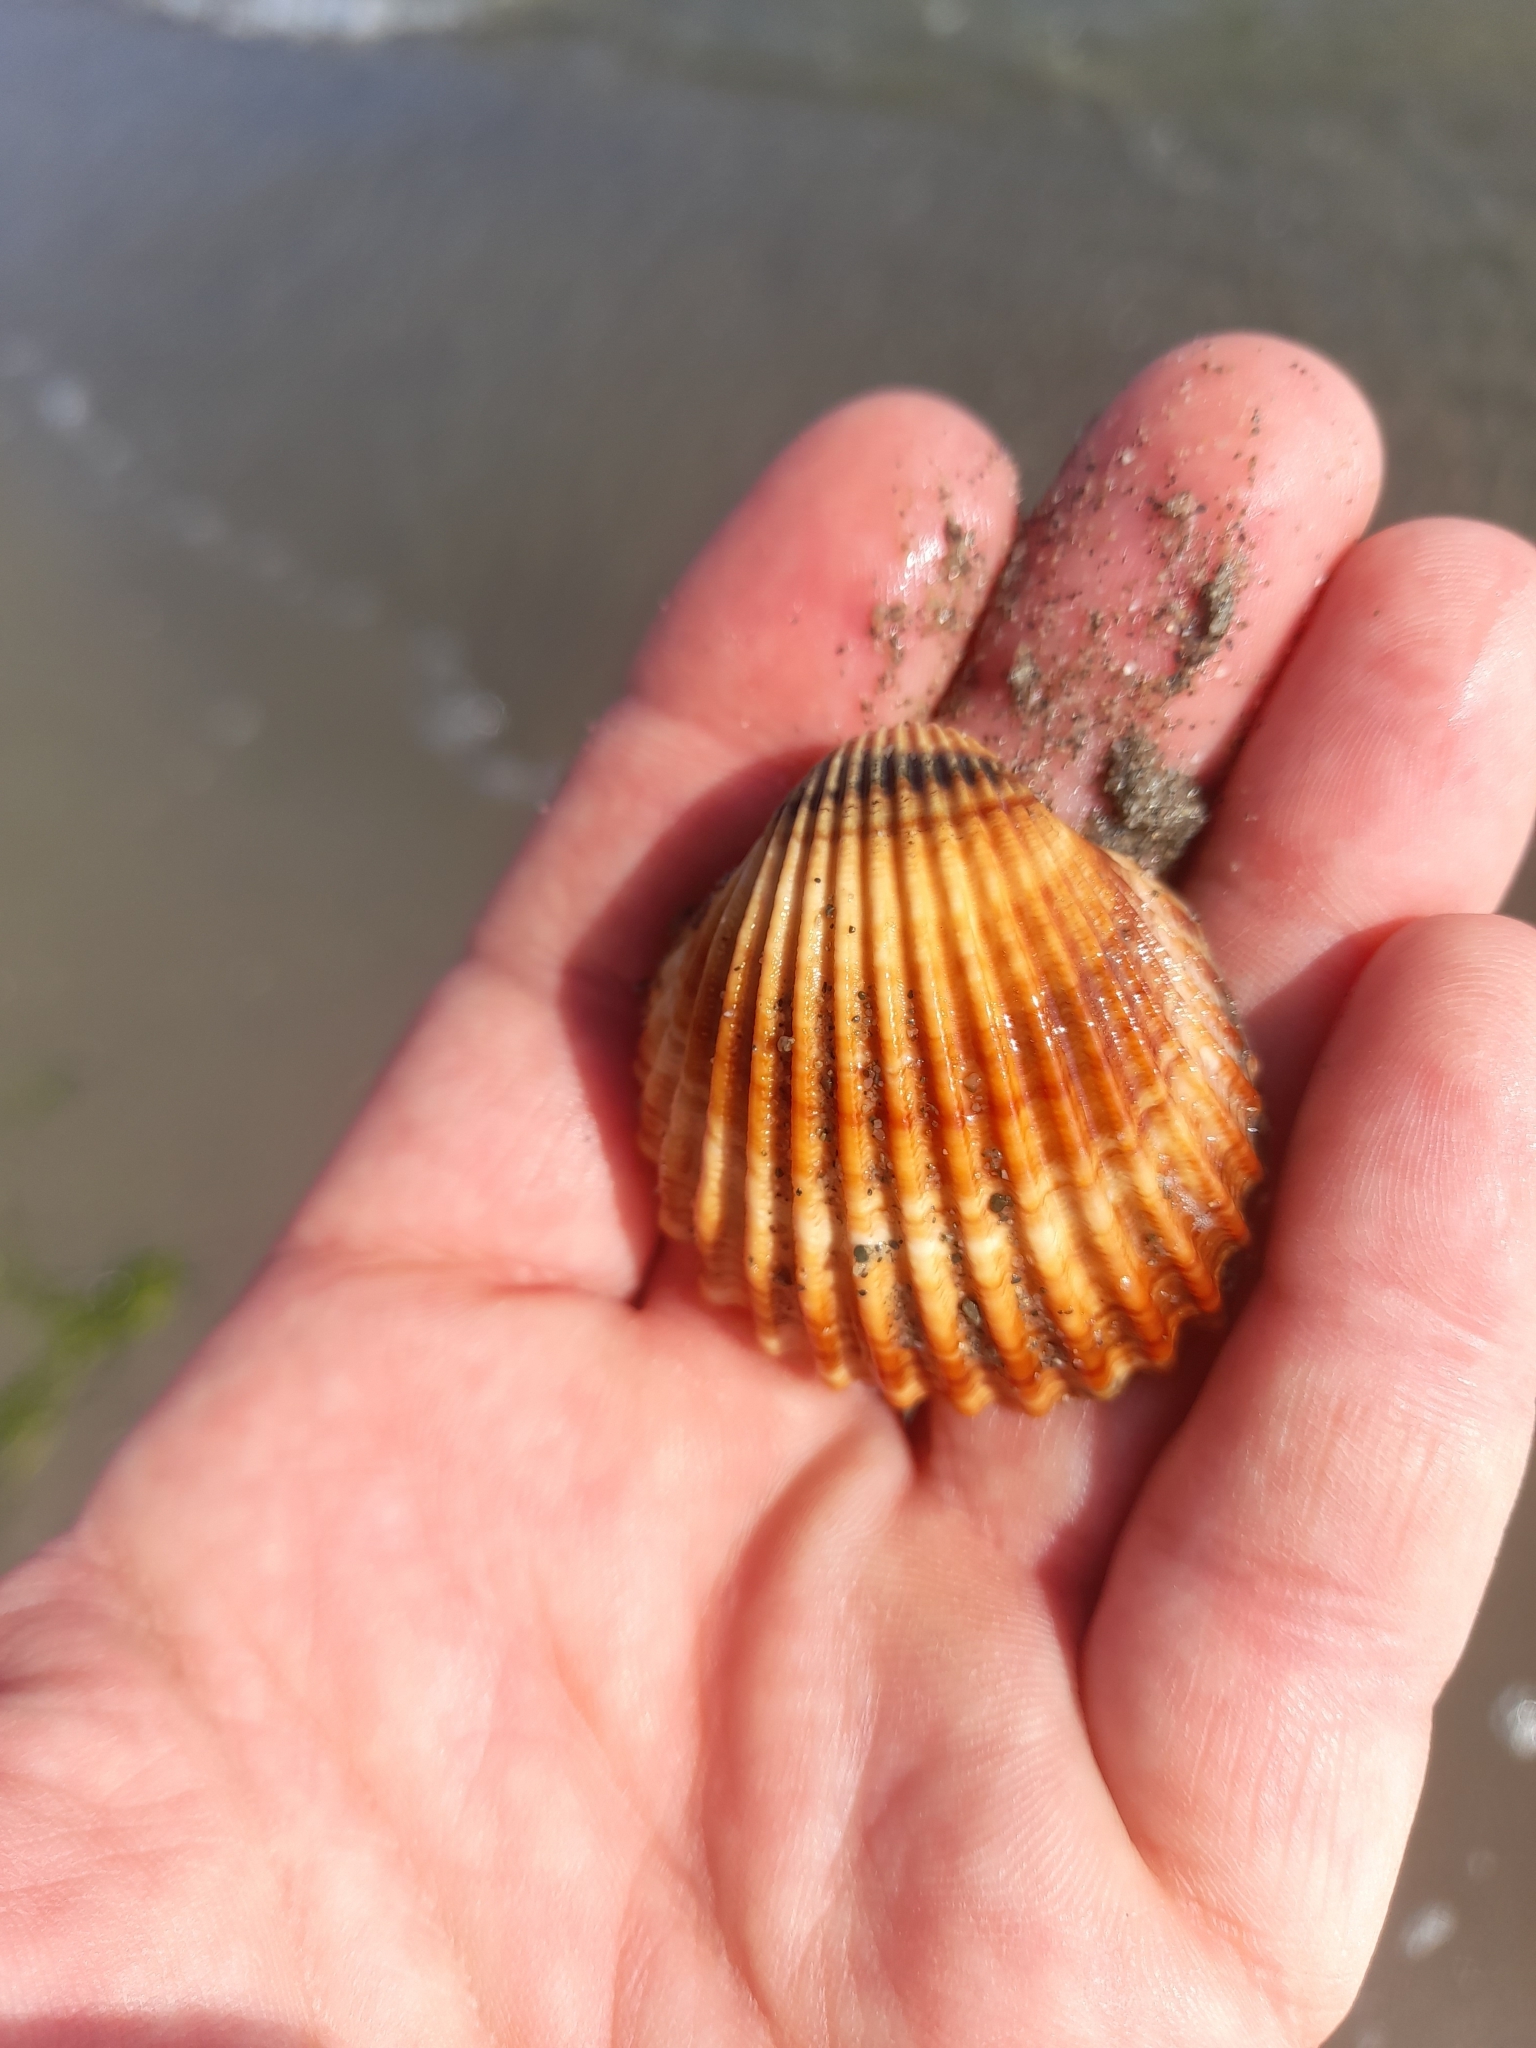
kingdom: Animalia
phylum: Mollusca
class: Bivalvia
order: Cardiida
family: Cardiidae
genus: Acanthocardia
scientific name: Acanthocardia tuberculata
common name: Rough cockle
